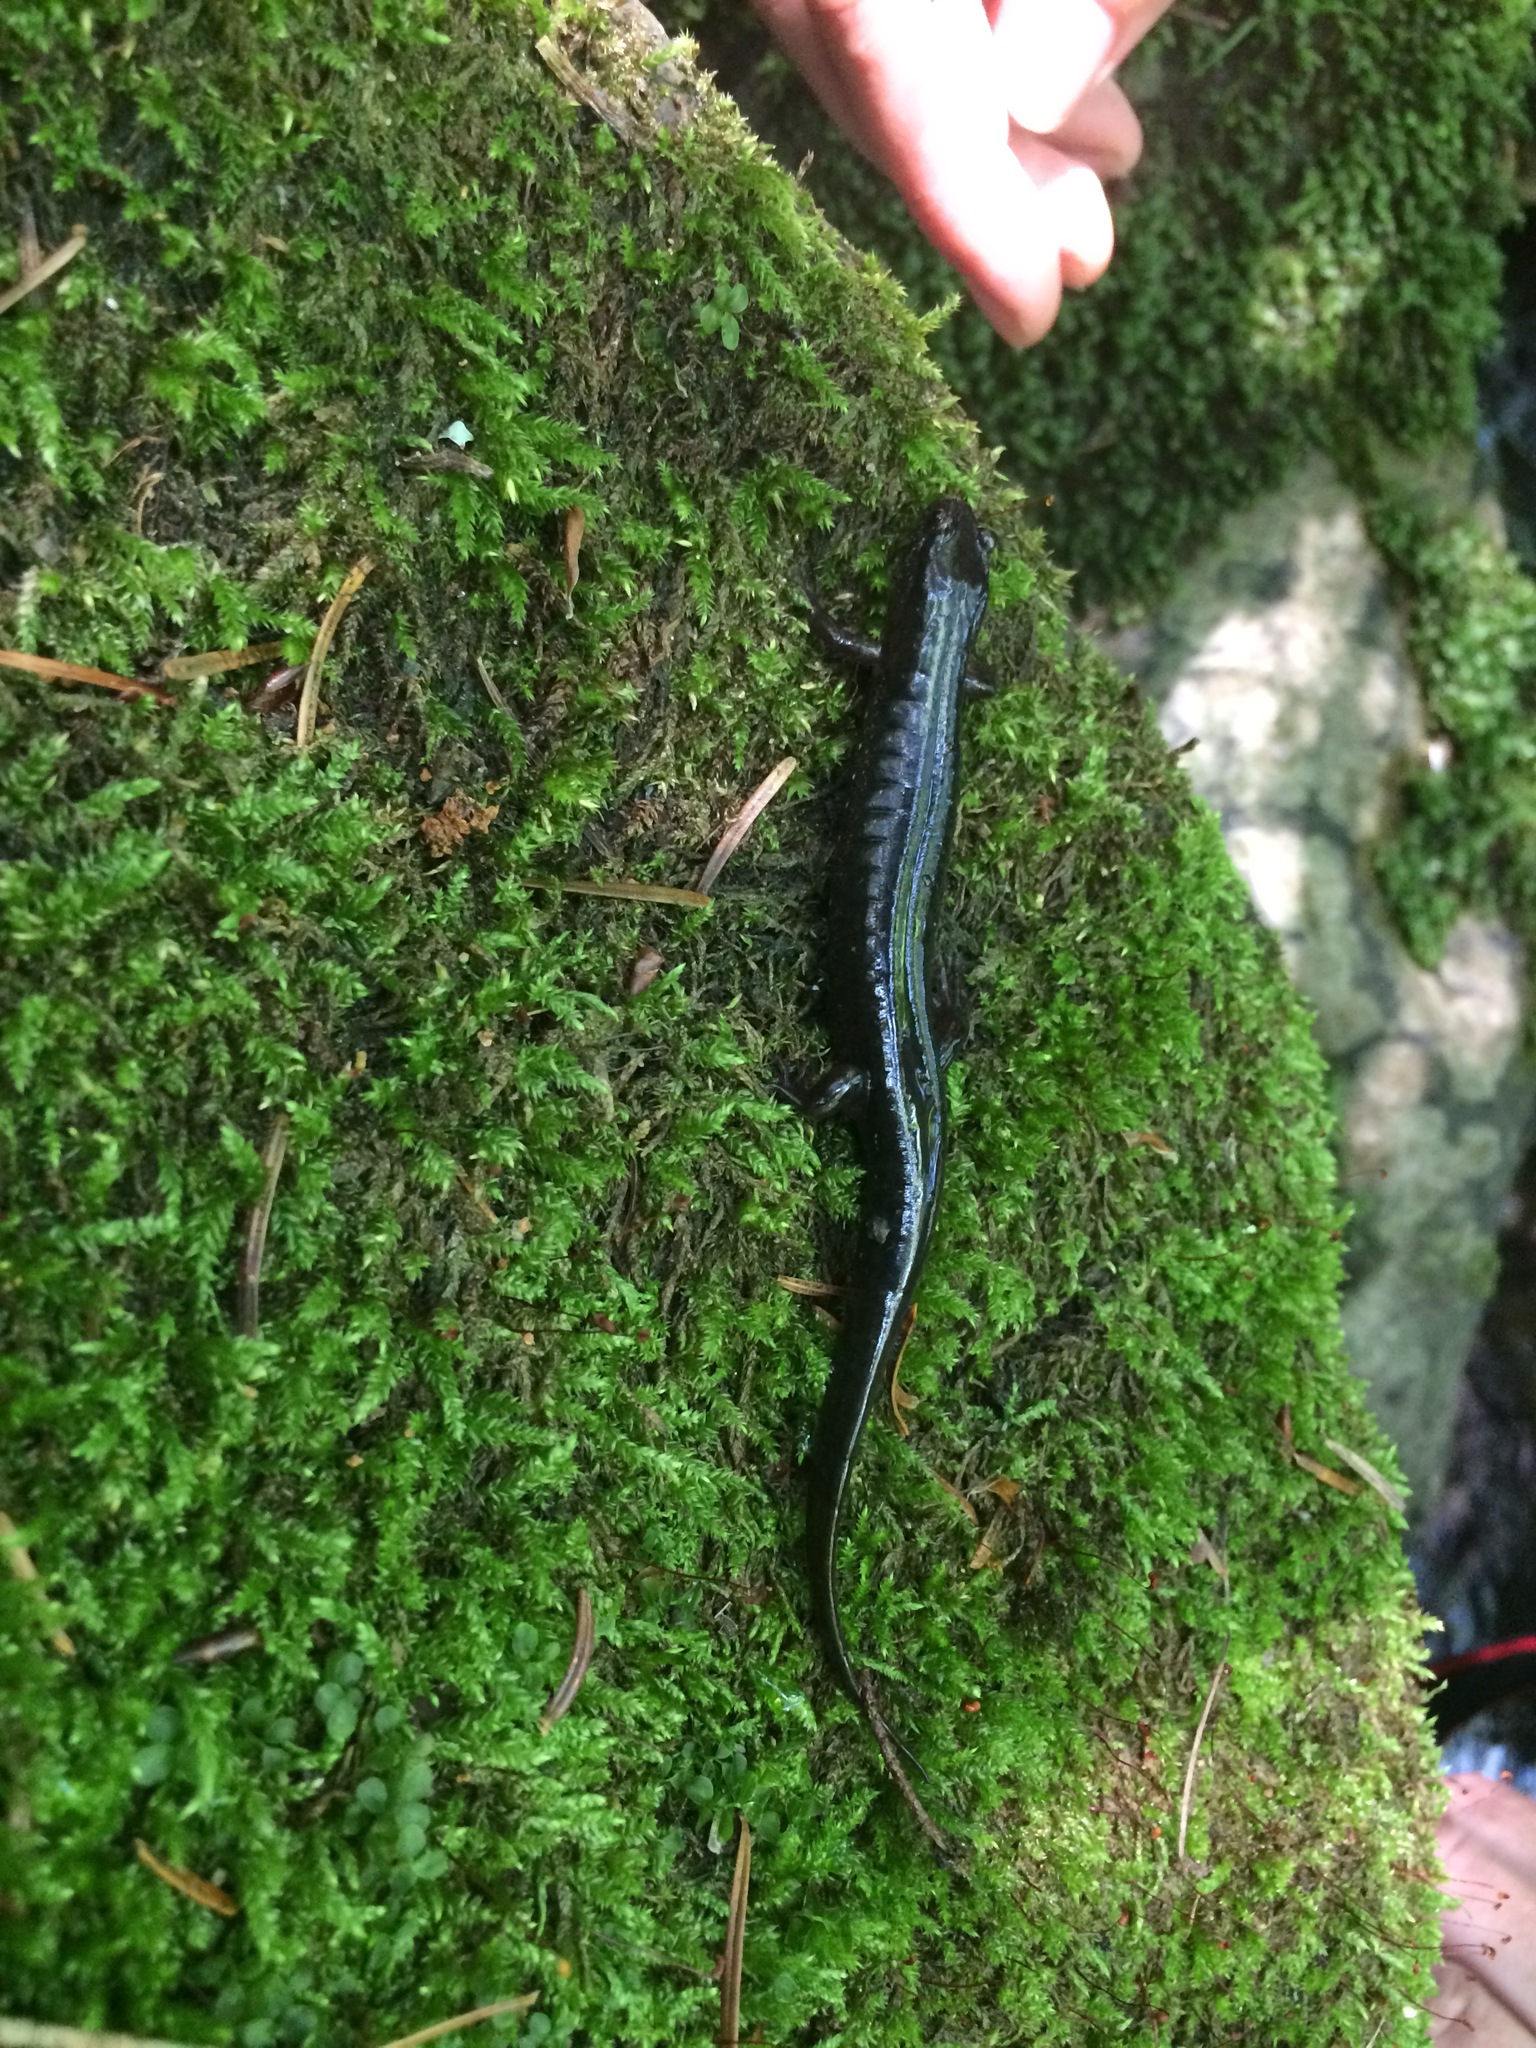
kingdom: Animalia
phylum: Chordata
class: Amphibia
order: Caudata
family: Plethodontidae
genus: Desmognathus
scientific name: Desmognathus fuscus
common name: Northern dusky salamander
